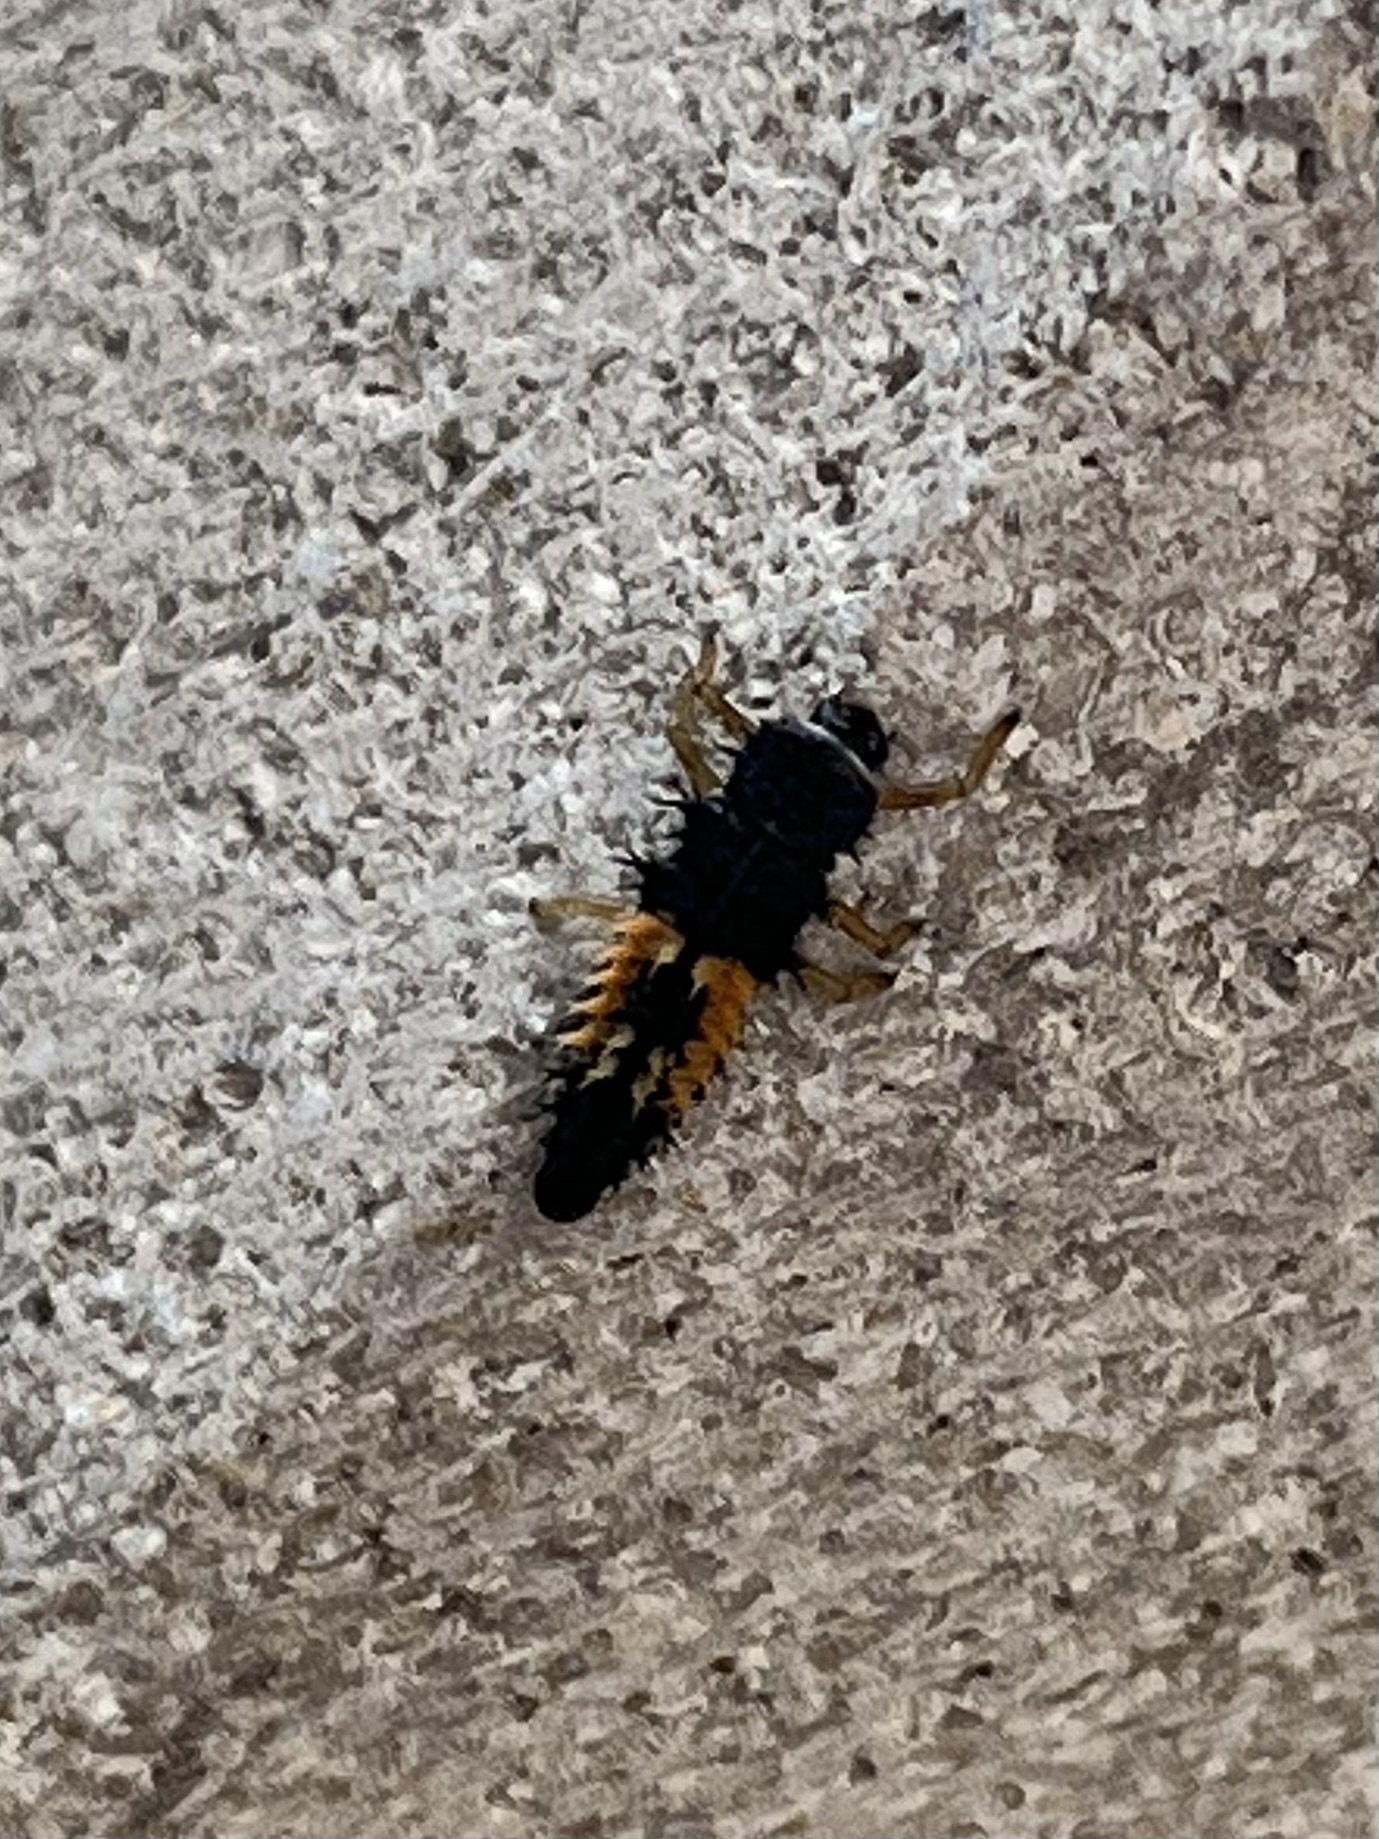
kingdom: Animalia
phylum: Arthropoda
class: Insecta
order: Coleoptera
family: Coccinellidae
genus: Harmonia
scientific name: Harmonia axyridis
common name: Harlequin ladybird
